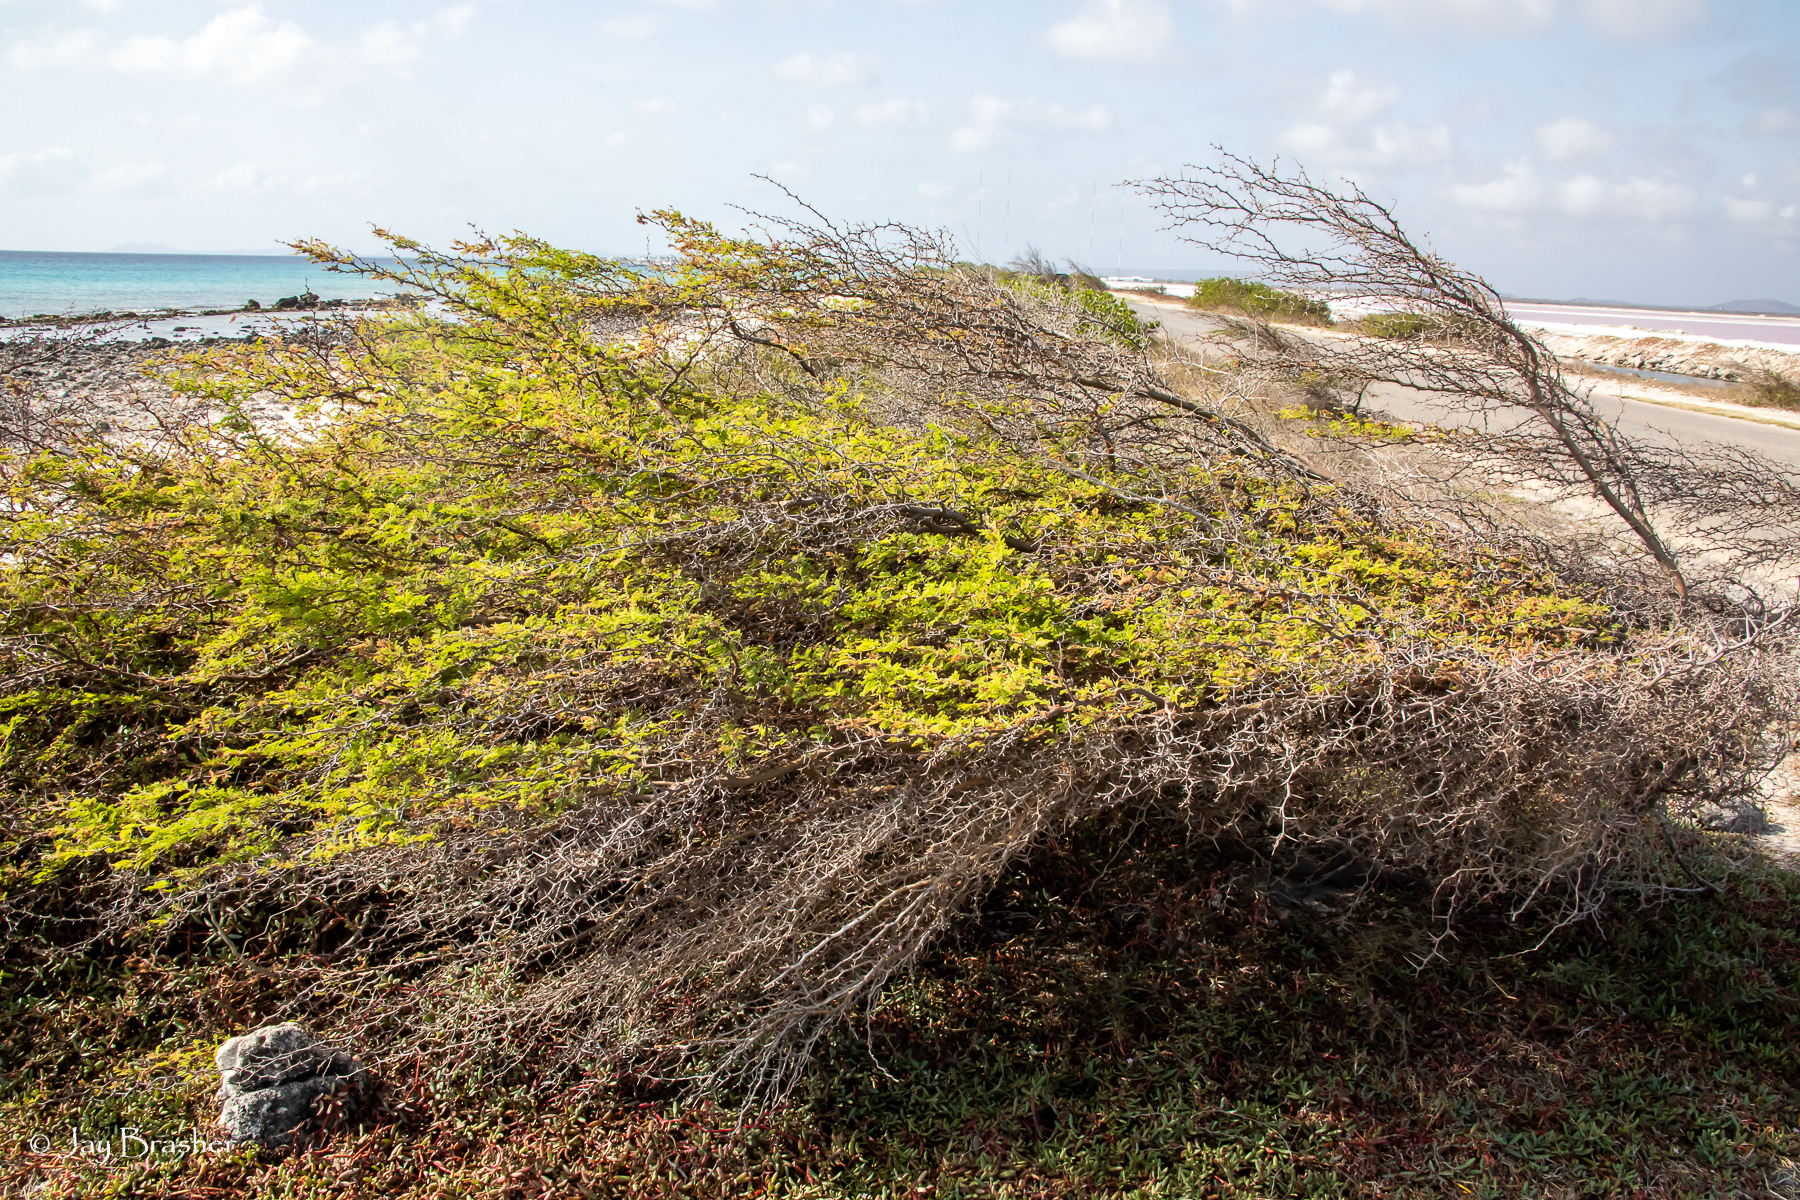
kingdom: Plantae
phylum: Tracheophyta
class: Magnoliopsida
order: Fabales
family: Fabaceae
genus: Vachellia
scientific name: Vachellia tortuosa
